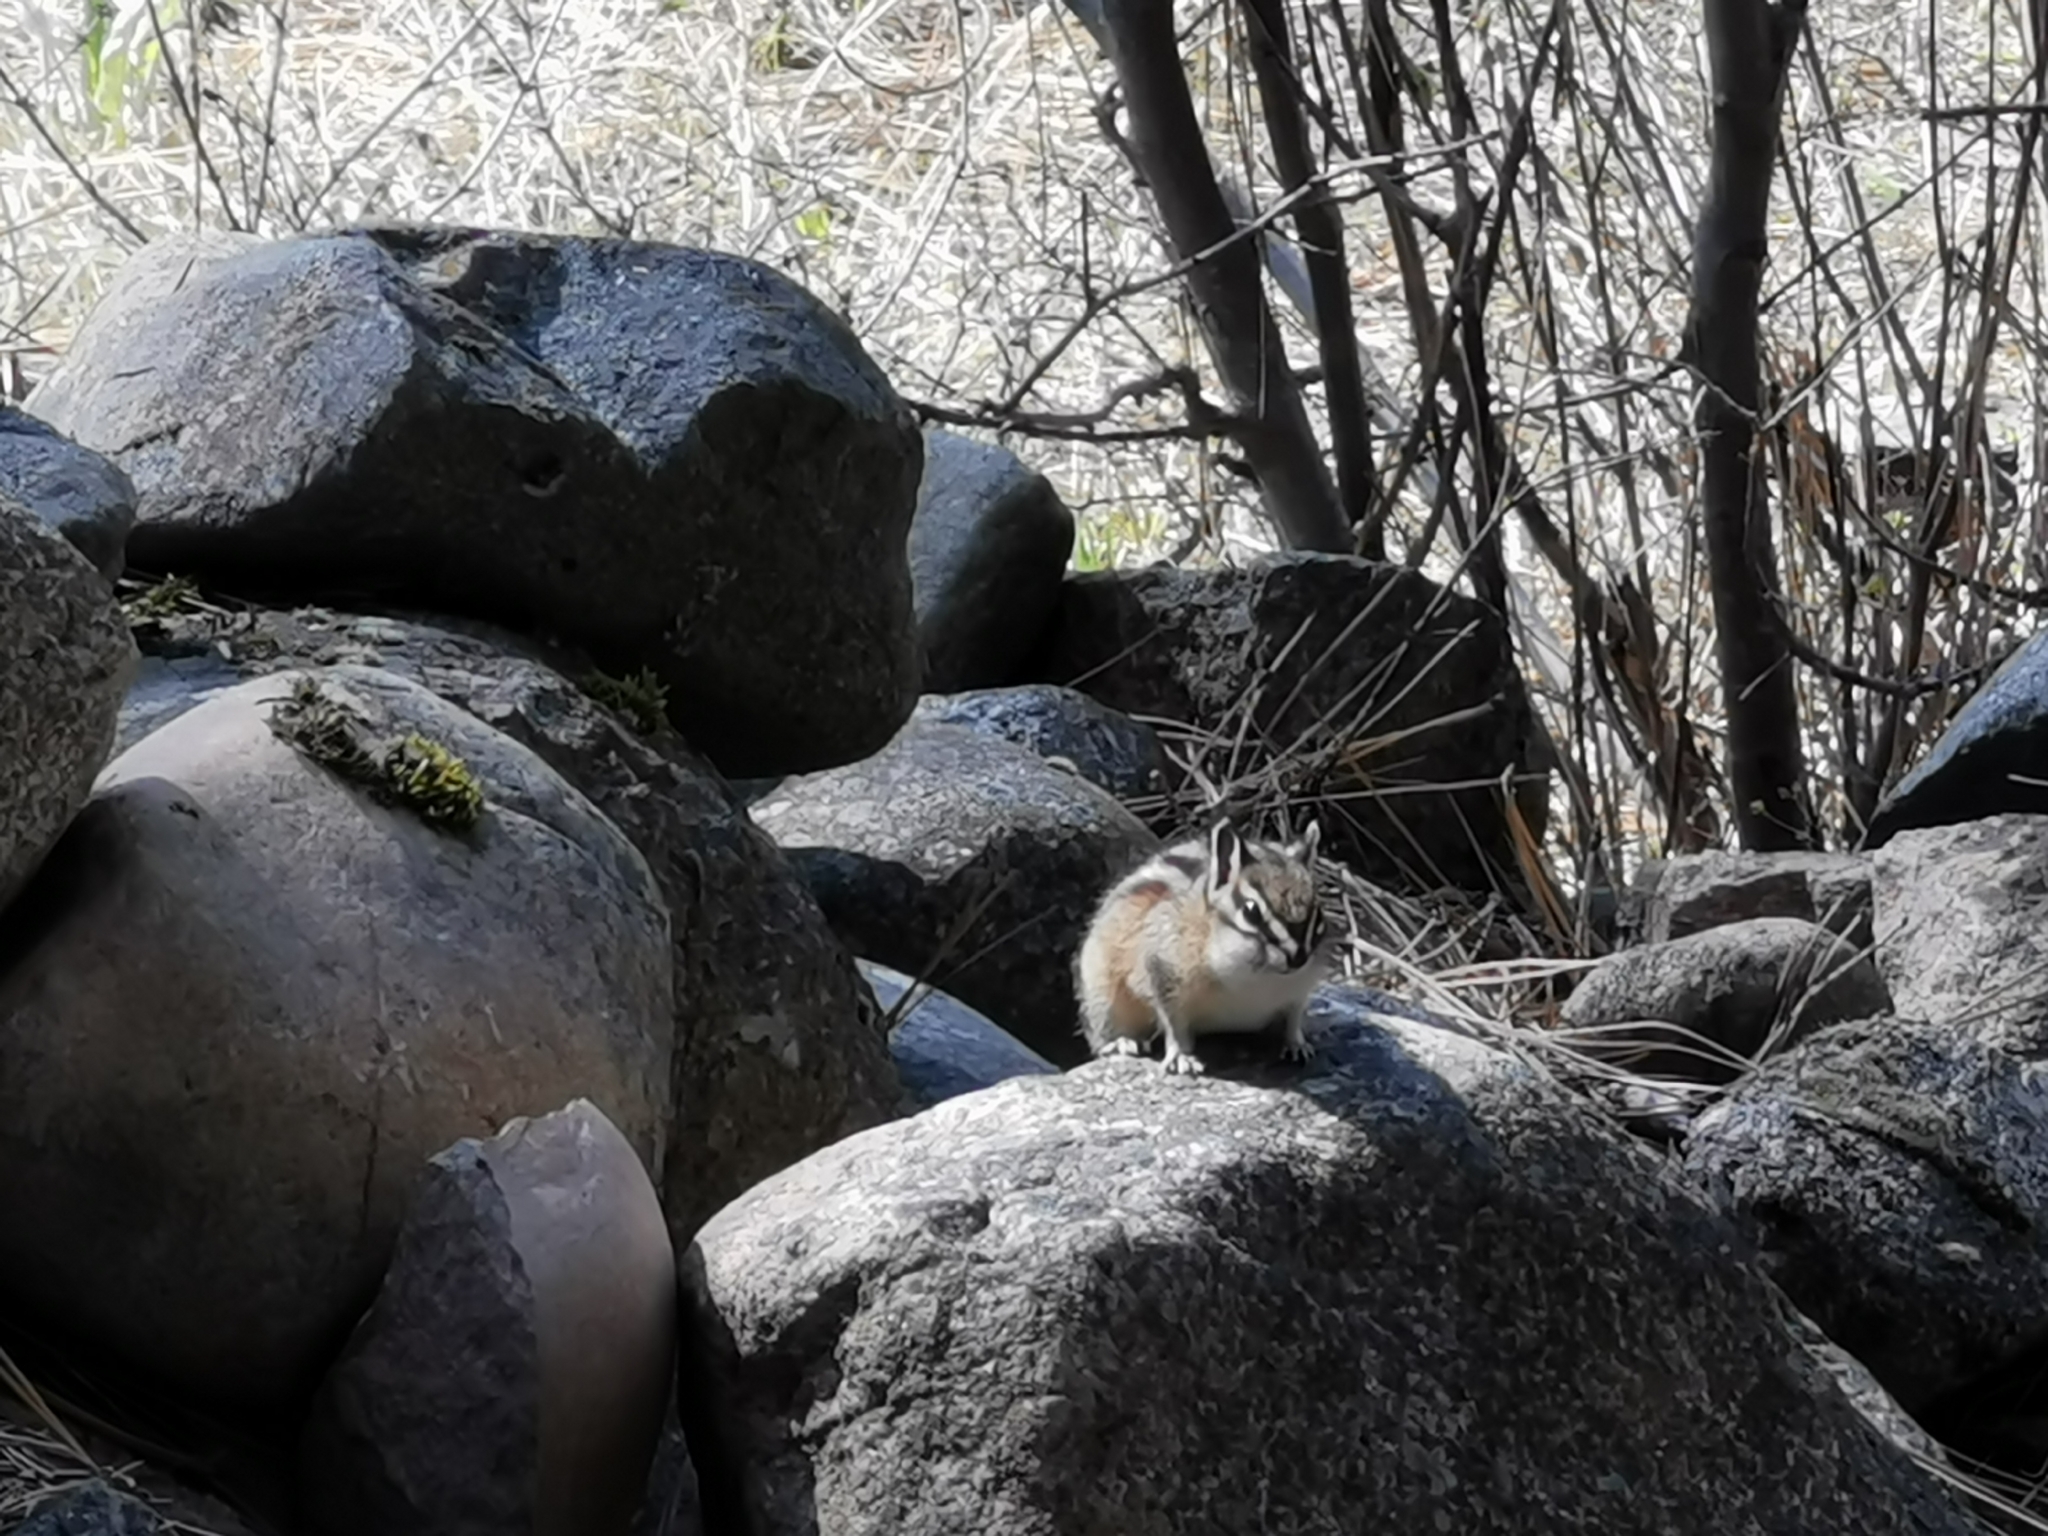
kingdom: Animalia
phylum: Chordata
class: Mammalia
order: Rodentia
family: Sciuridae
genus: Tamias
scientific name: Tamias amoenus
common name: Yellow-pine chipmunk
